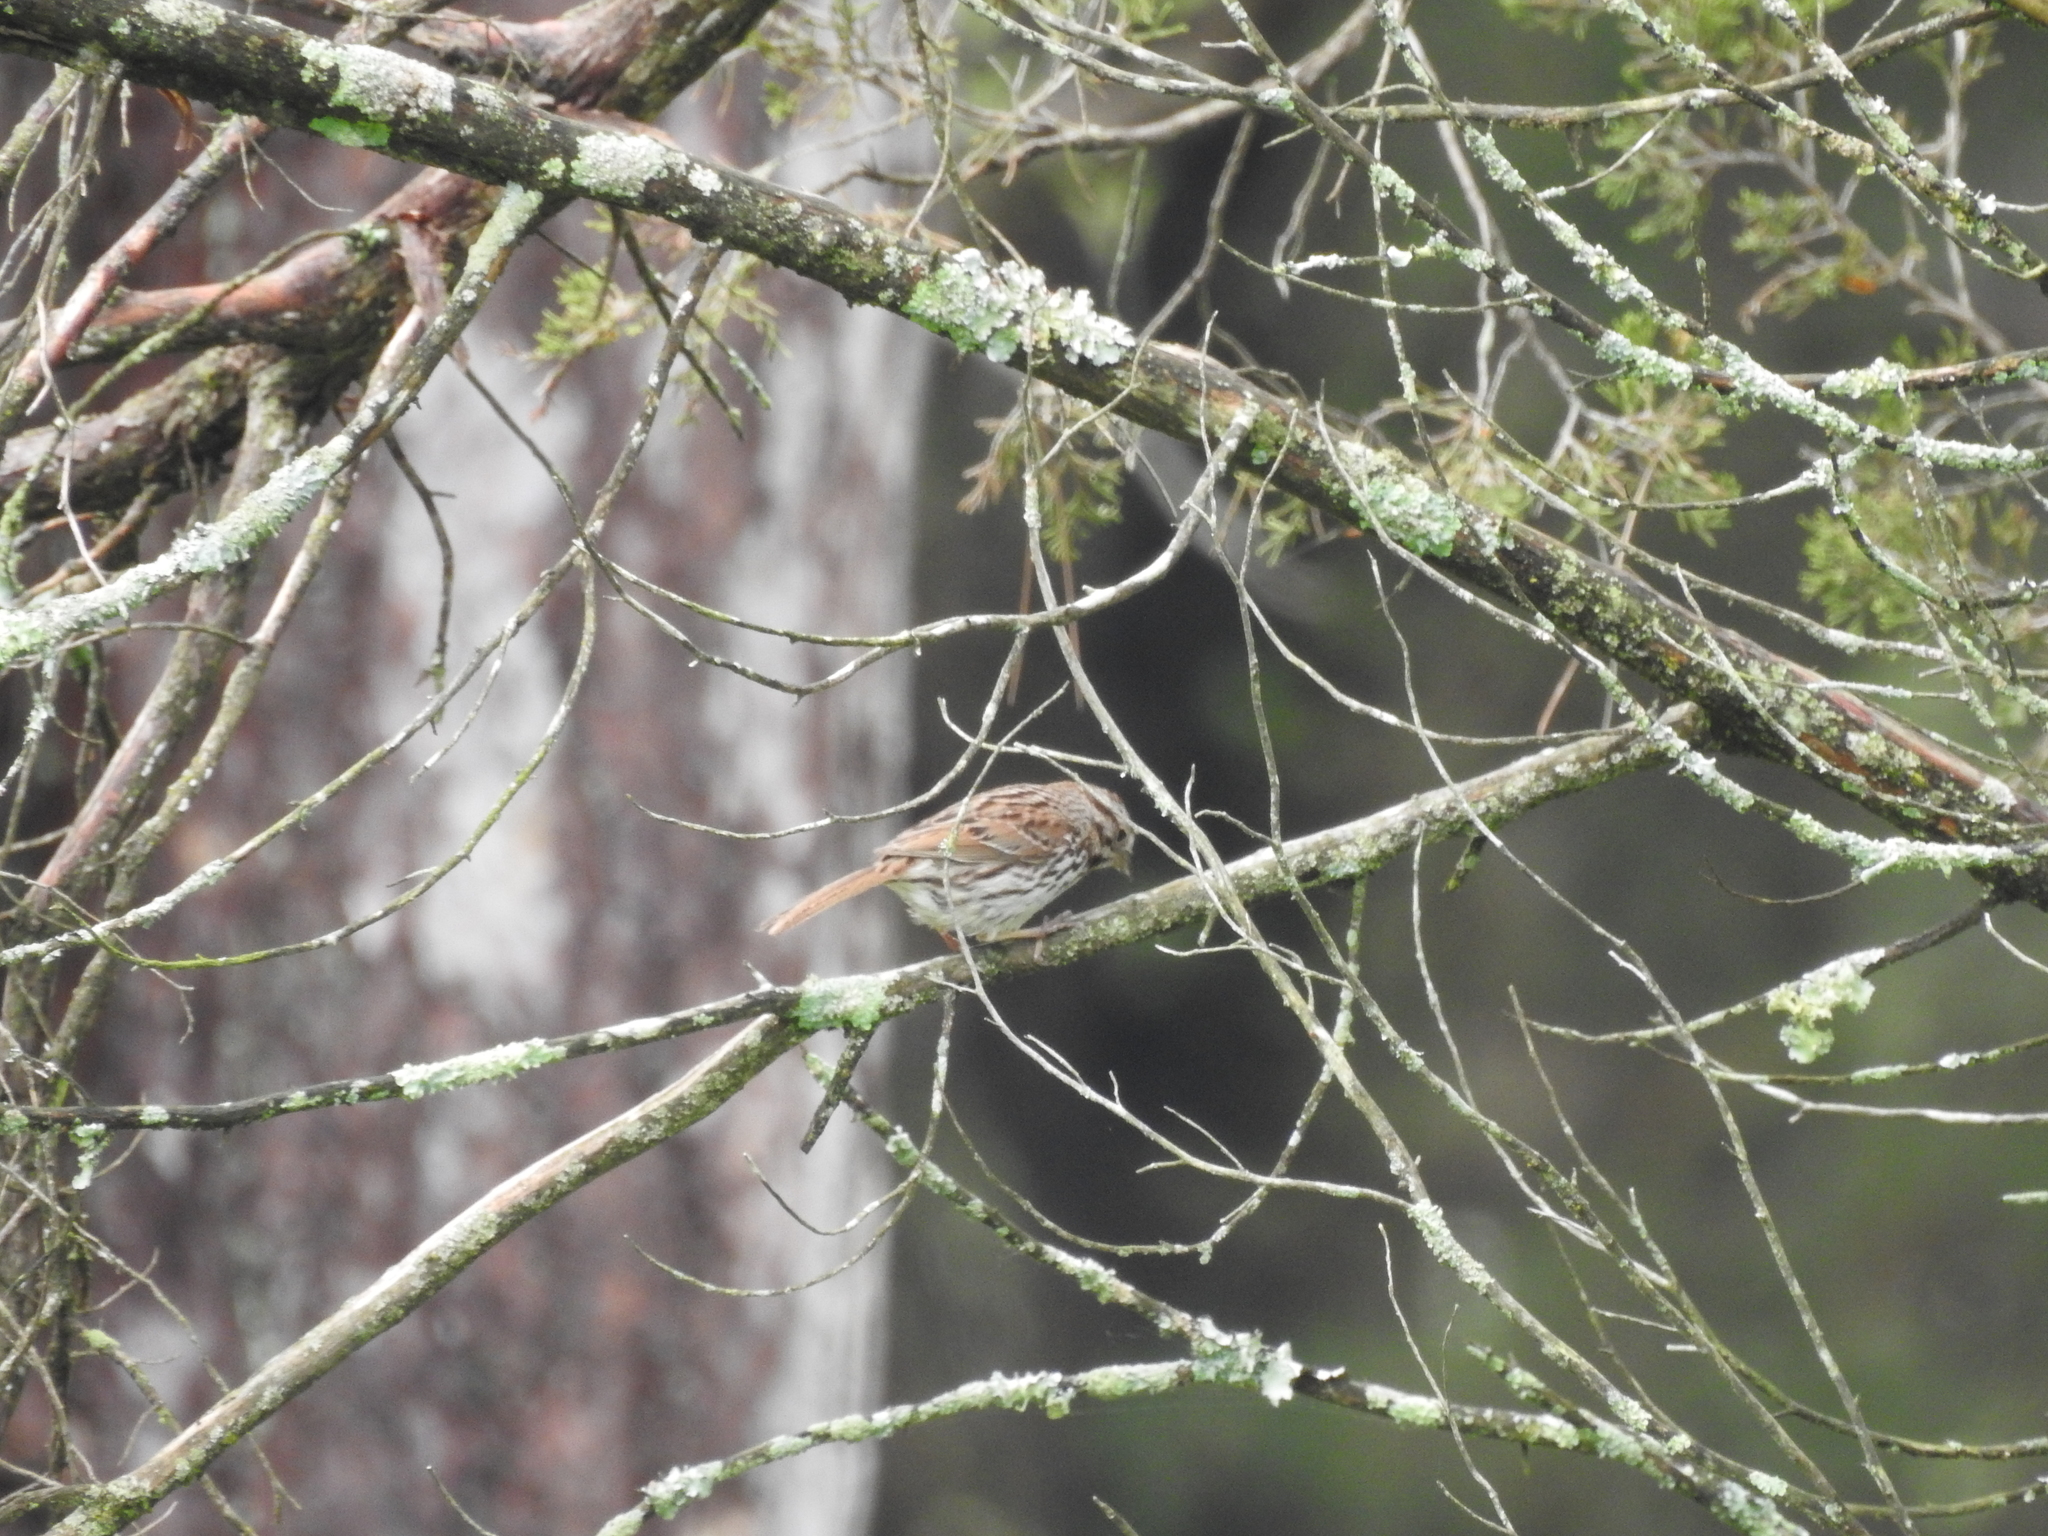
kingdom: Animalia
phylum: Chordata
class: Aves
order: Passeriformes
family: Passerellidae
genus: Melospiza
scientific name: Melospiza melodia
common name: Song sparrow
